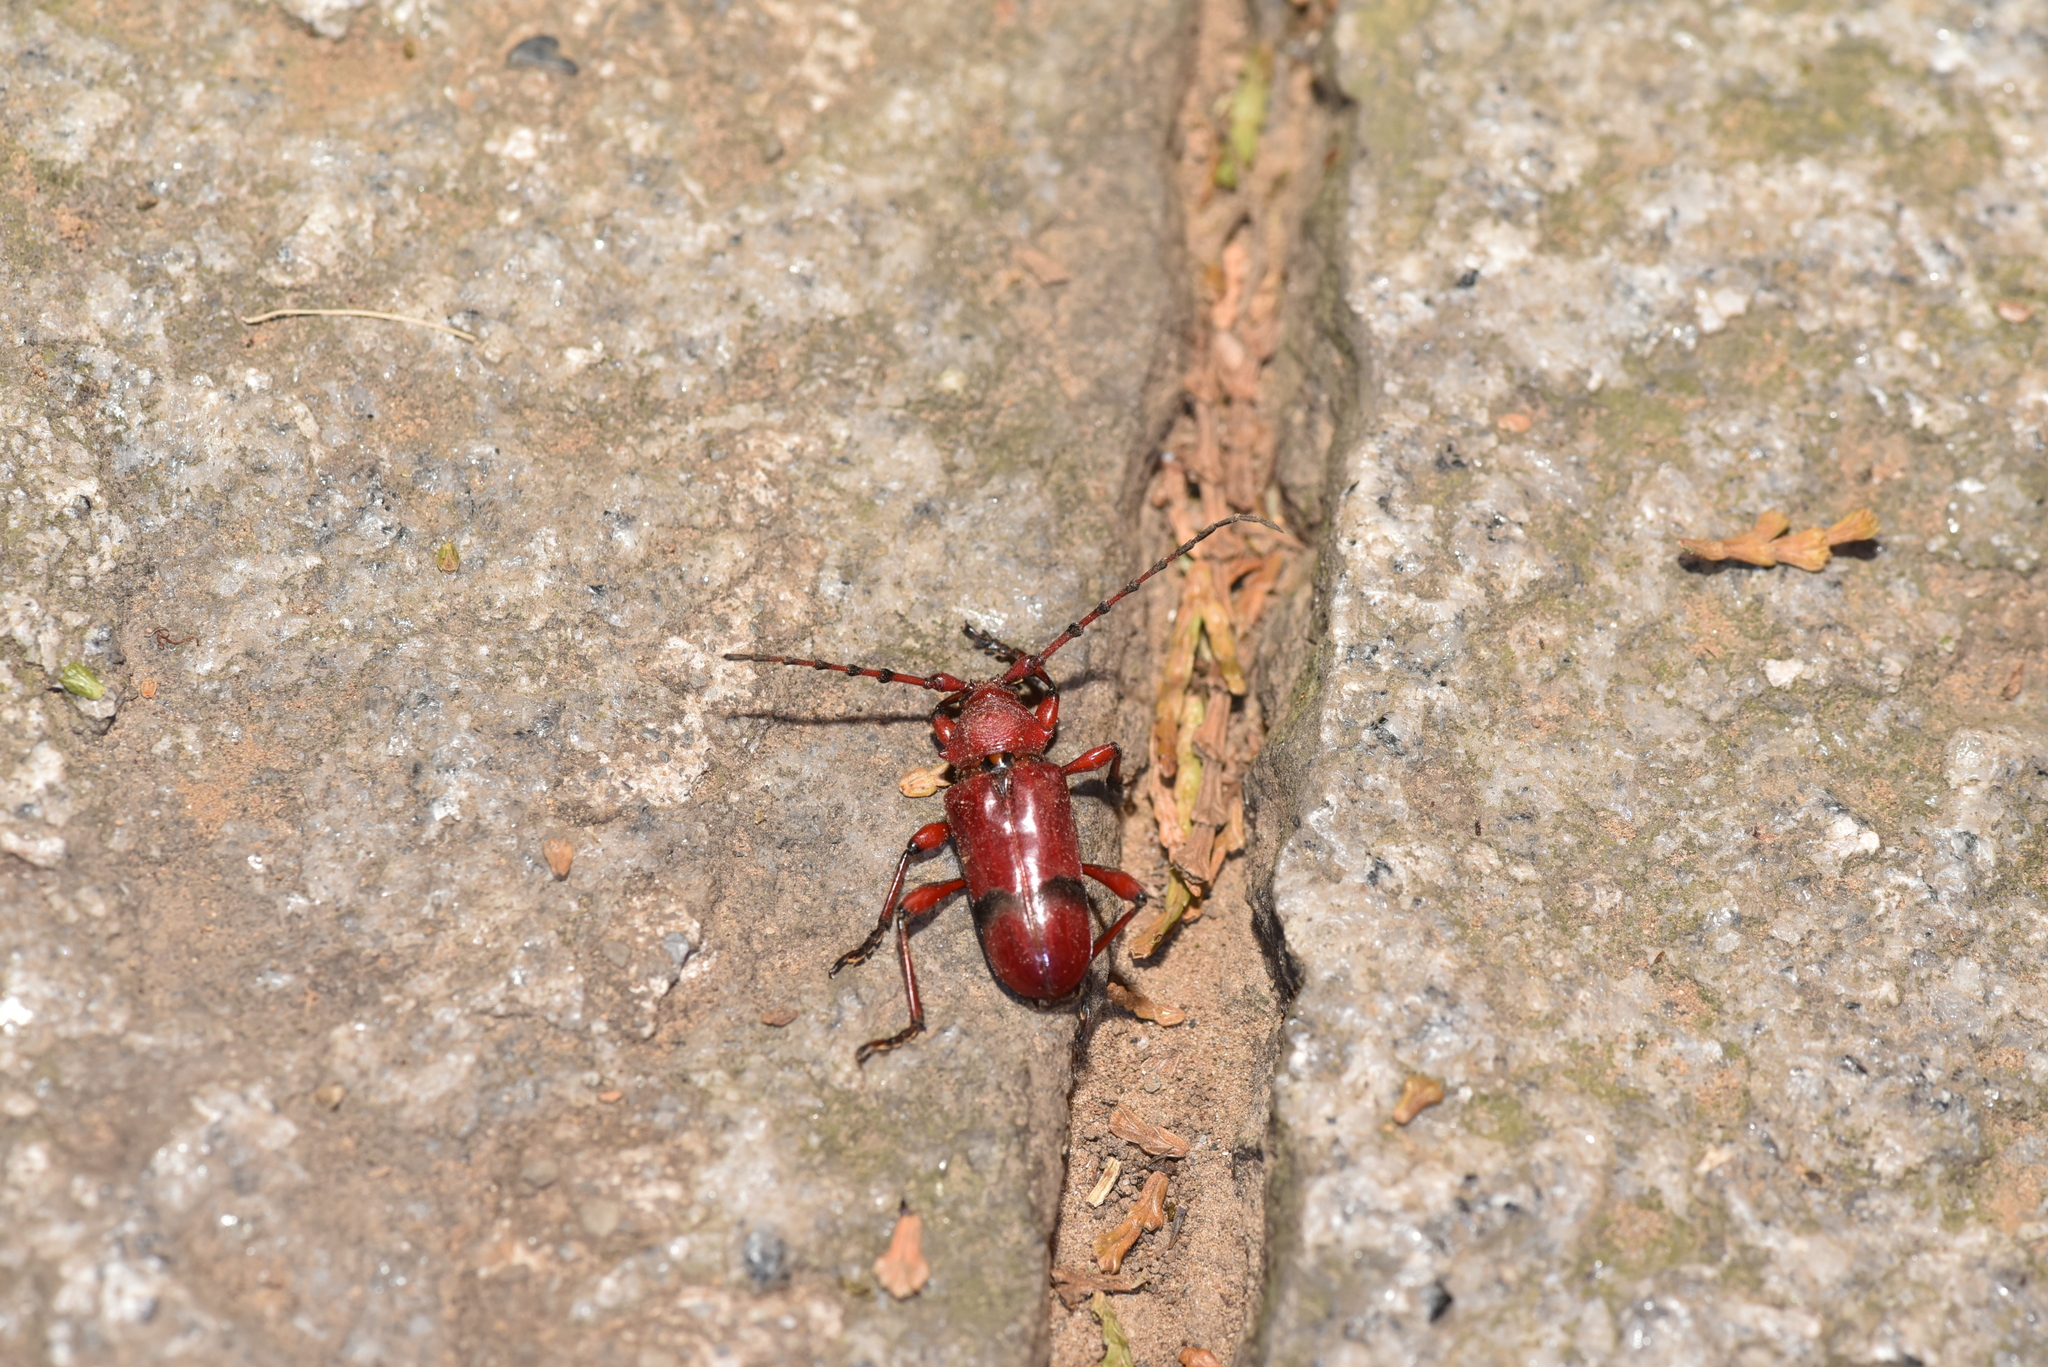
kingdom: Animalia
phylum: Arthropoda
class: Insecta
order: Coleoptera
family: Cerambycidae
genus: Dicelosternus
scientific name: Dicelosternus corallinus
